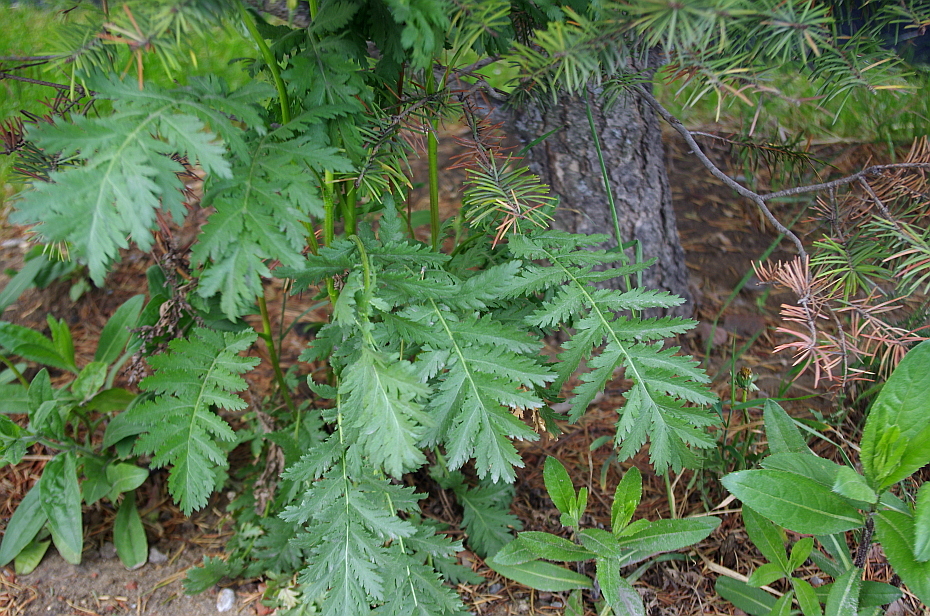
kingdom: Plantae
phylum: Tracheophyta
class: Magnoliopsida
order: Asterales
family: Asteraceae
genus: Tanacetum
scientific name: Tanacetum vulgare
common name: Common tansy
